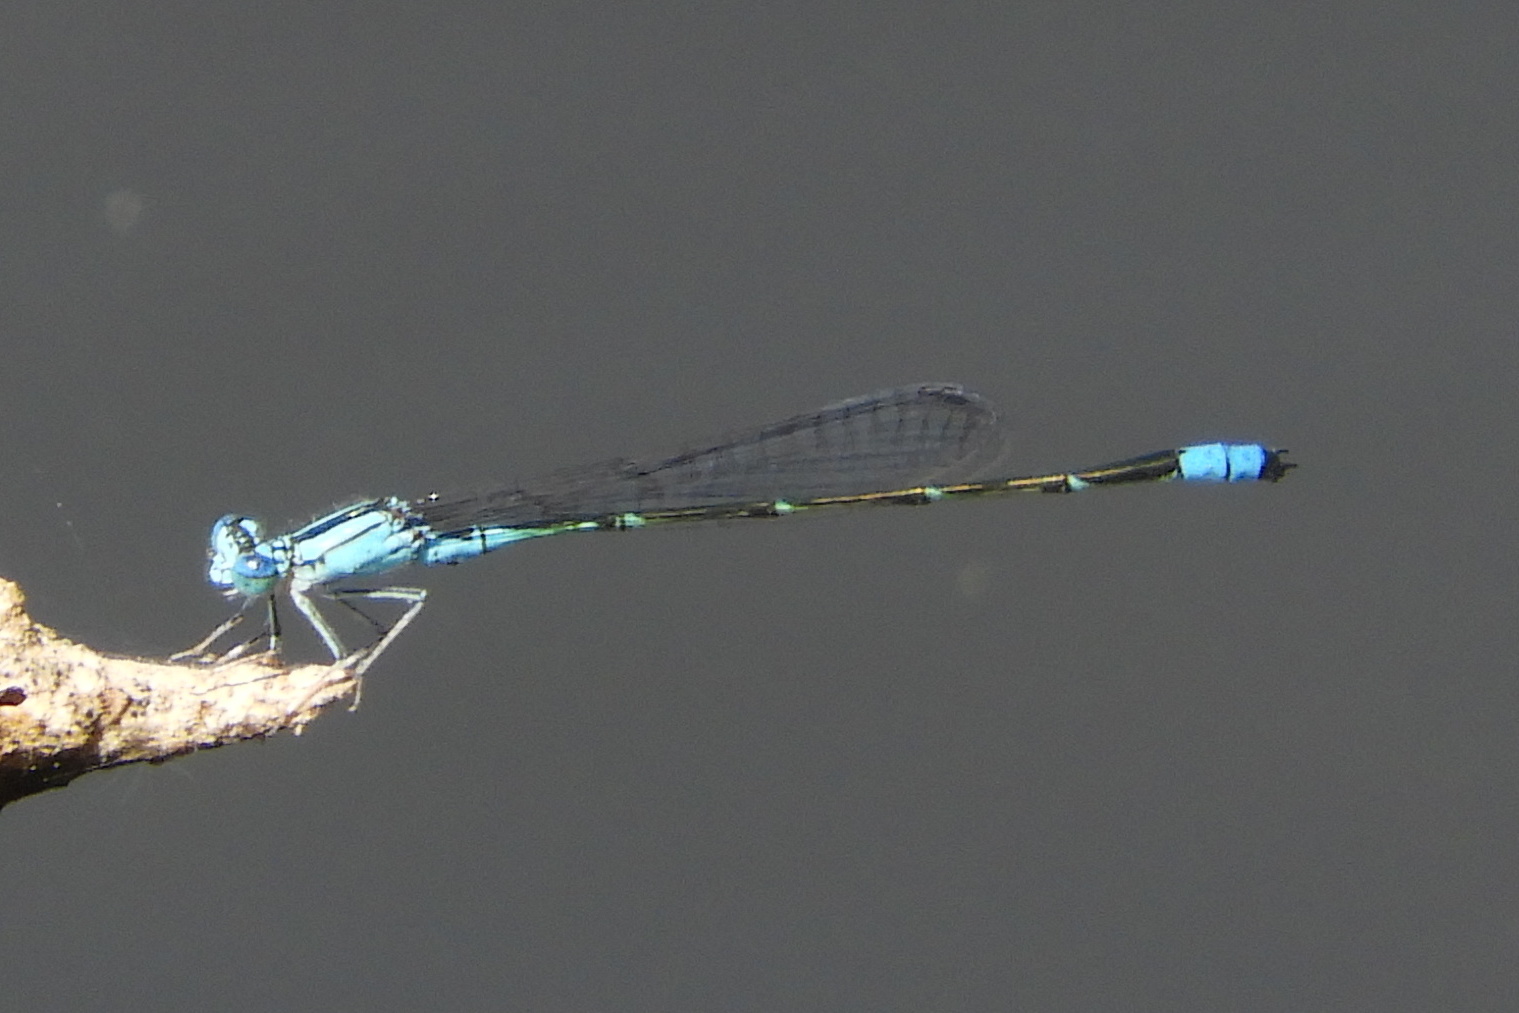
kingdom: Animalia
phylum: Arthropoda
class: Insecta
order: Odonata
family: Coenagrionidae
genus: Enallagma
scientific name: Enallagma traviatum
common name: Slender bluet
